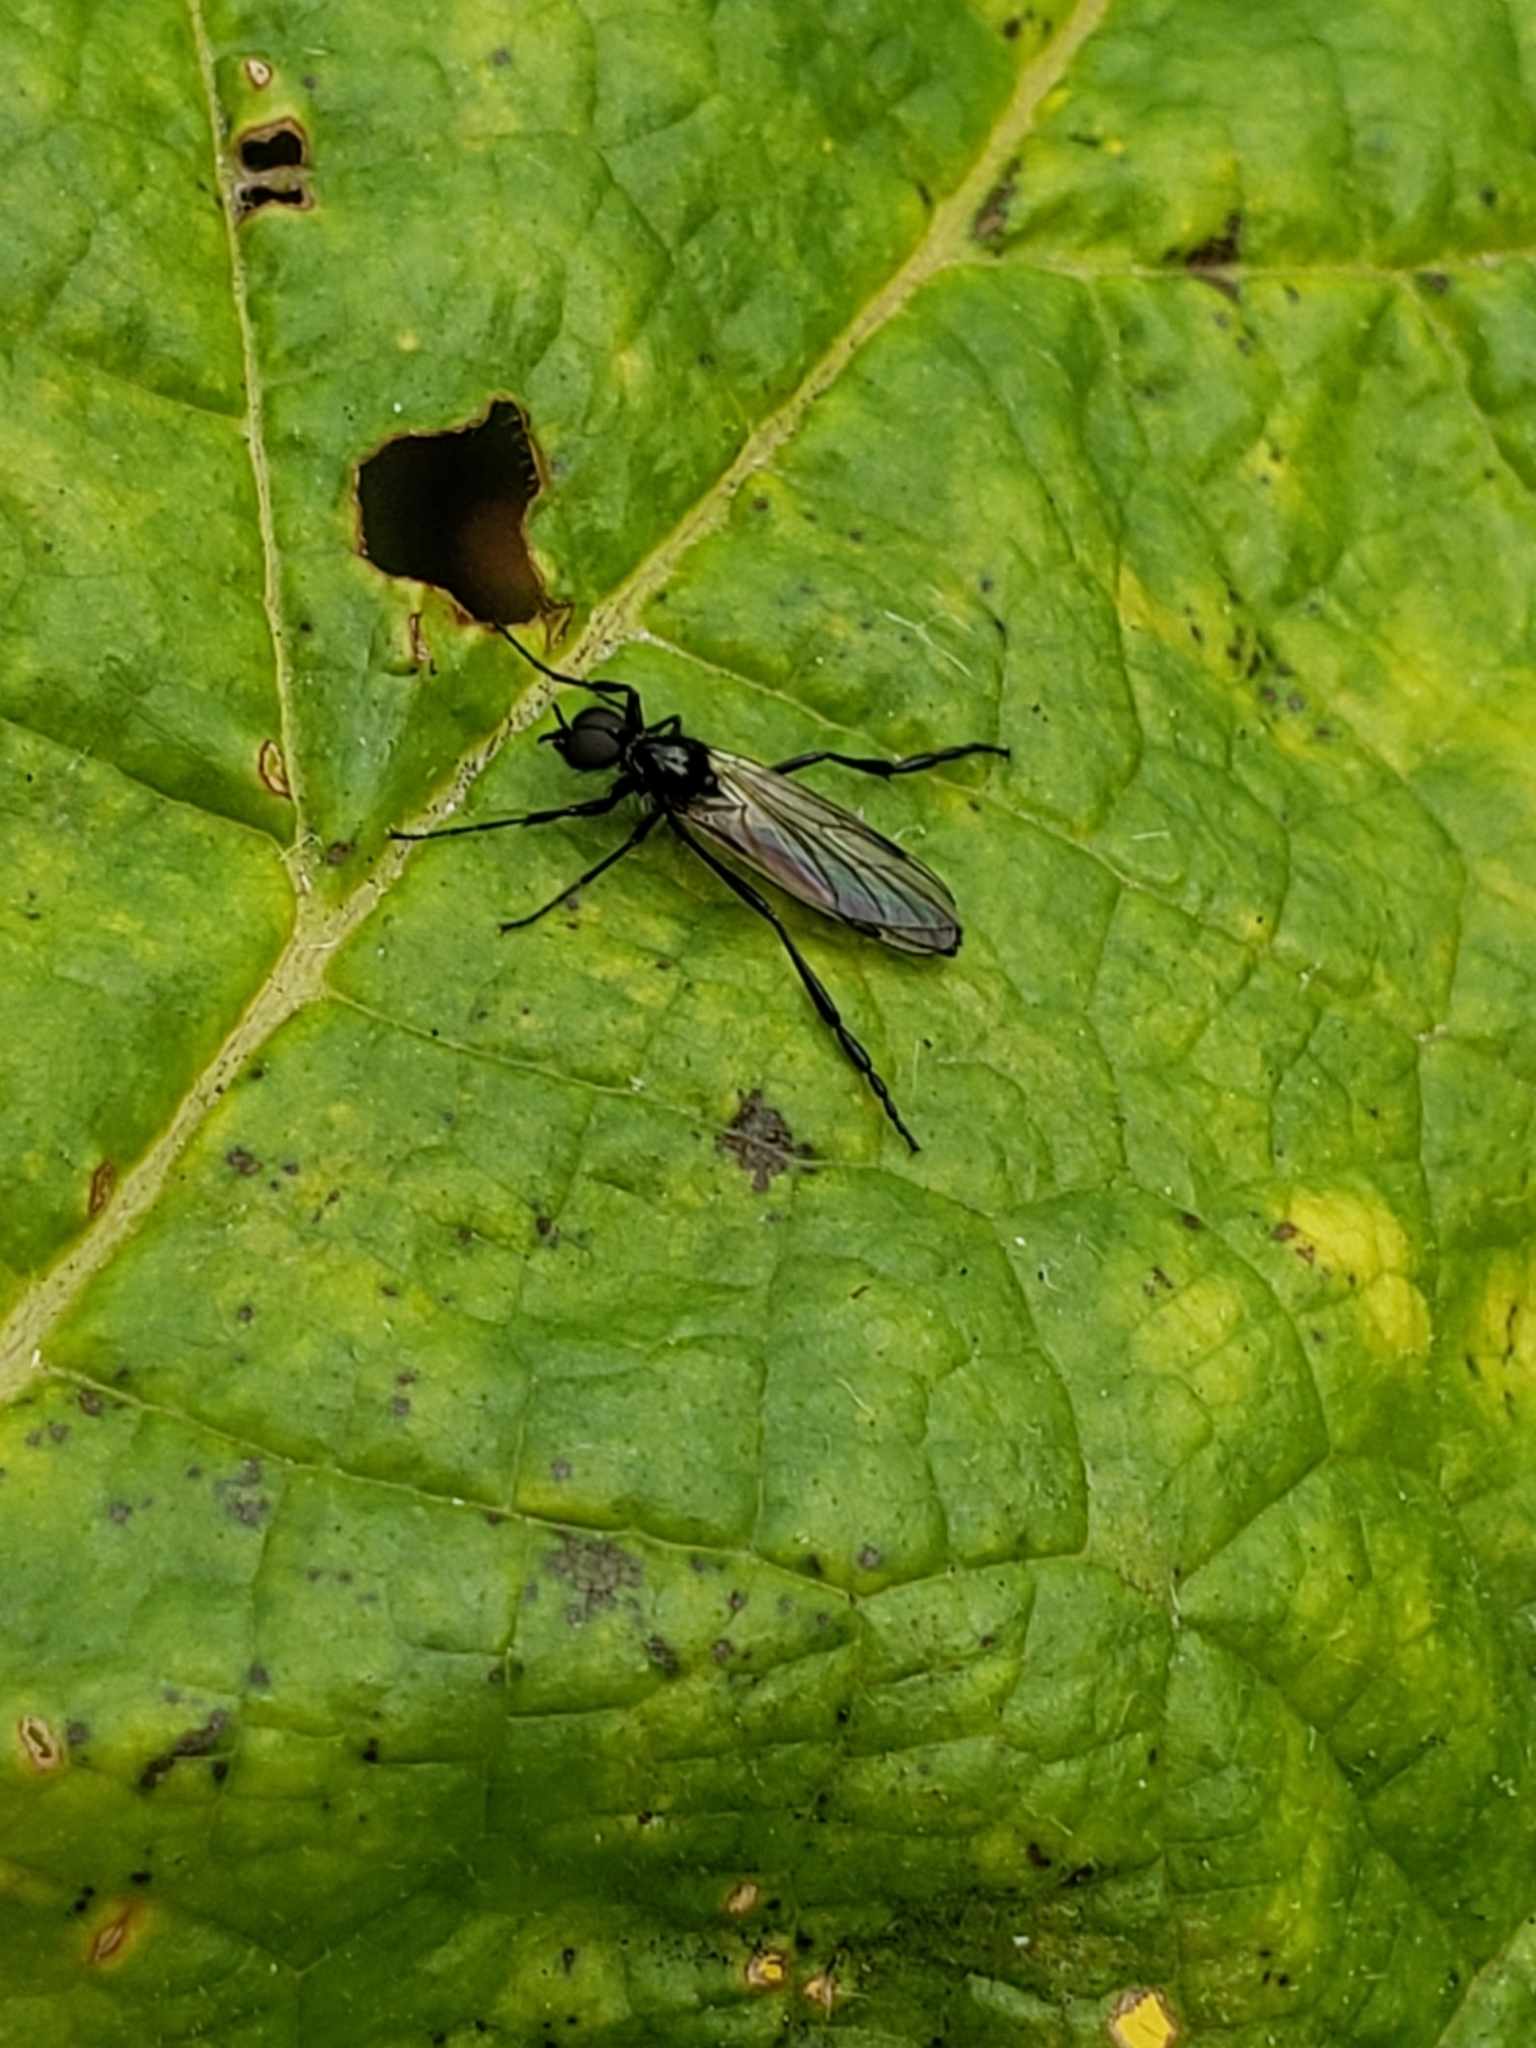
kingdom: Animalia
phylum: Arthropoda
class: Insecta
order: Diptera
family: Bibionidae
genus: Bibio
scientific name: Bibio longipes
